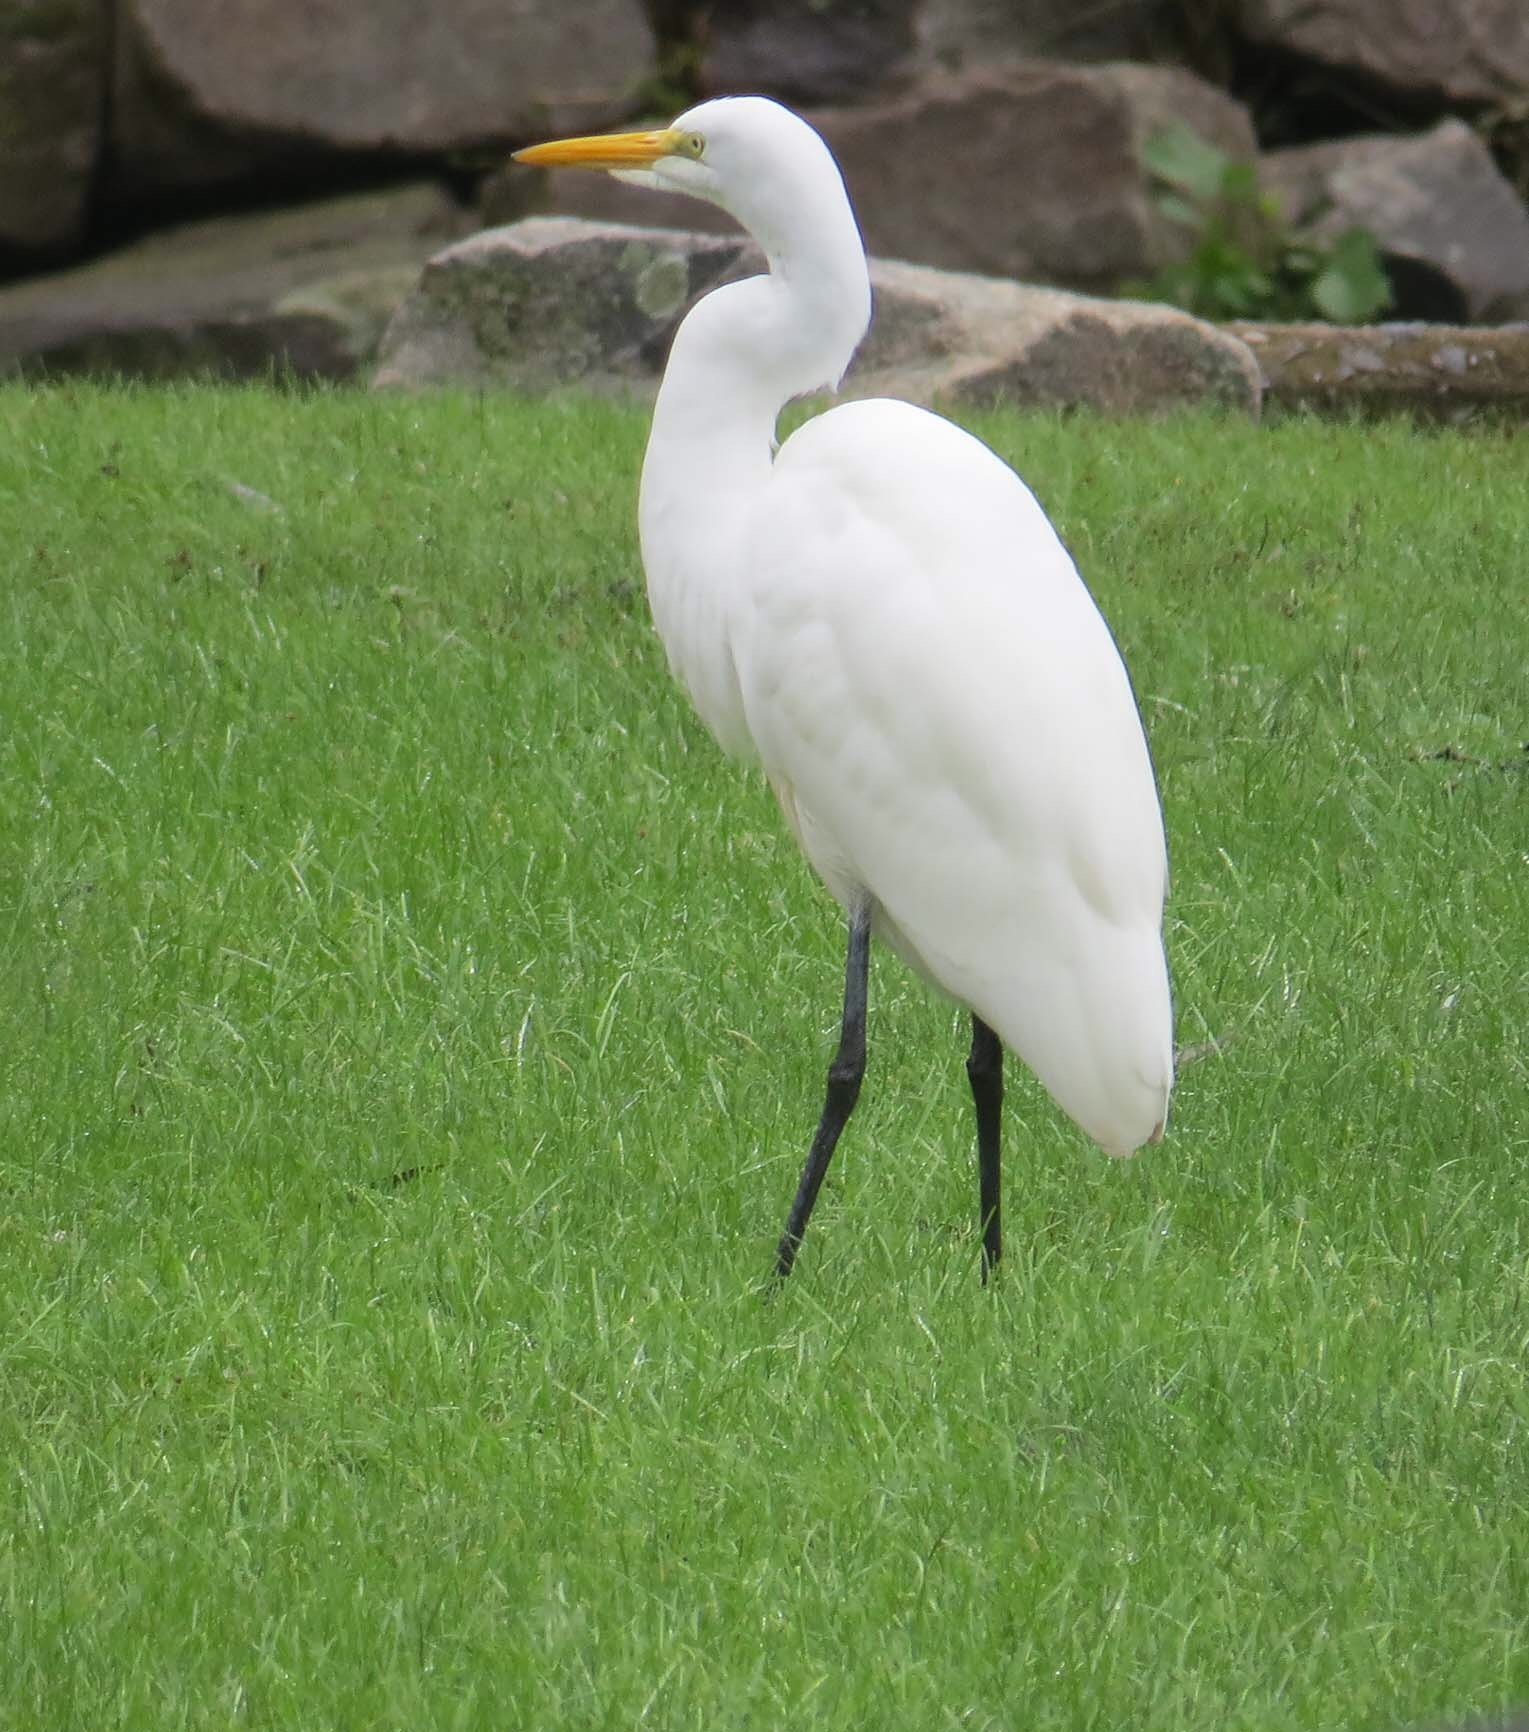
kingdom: Animalia
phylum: Chordata
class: Aves
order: Pelecaniformes
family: Ardeidae
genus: Ardea
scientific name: Ardea alba
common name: Great egret
